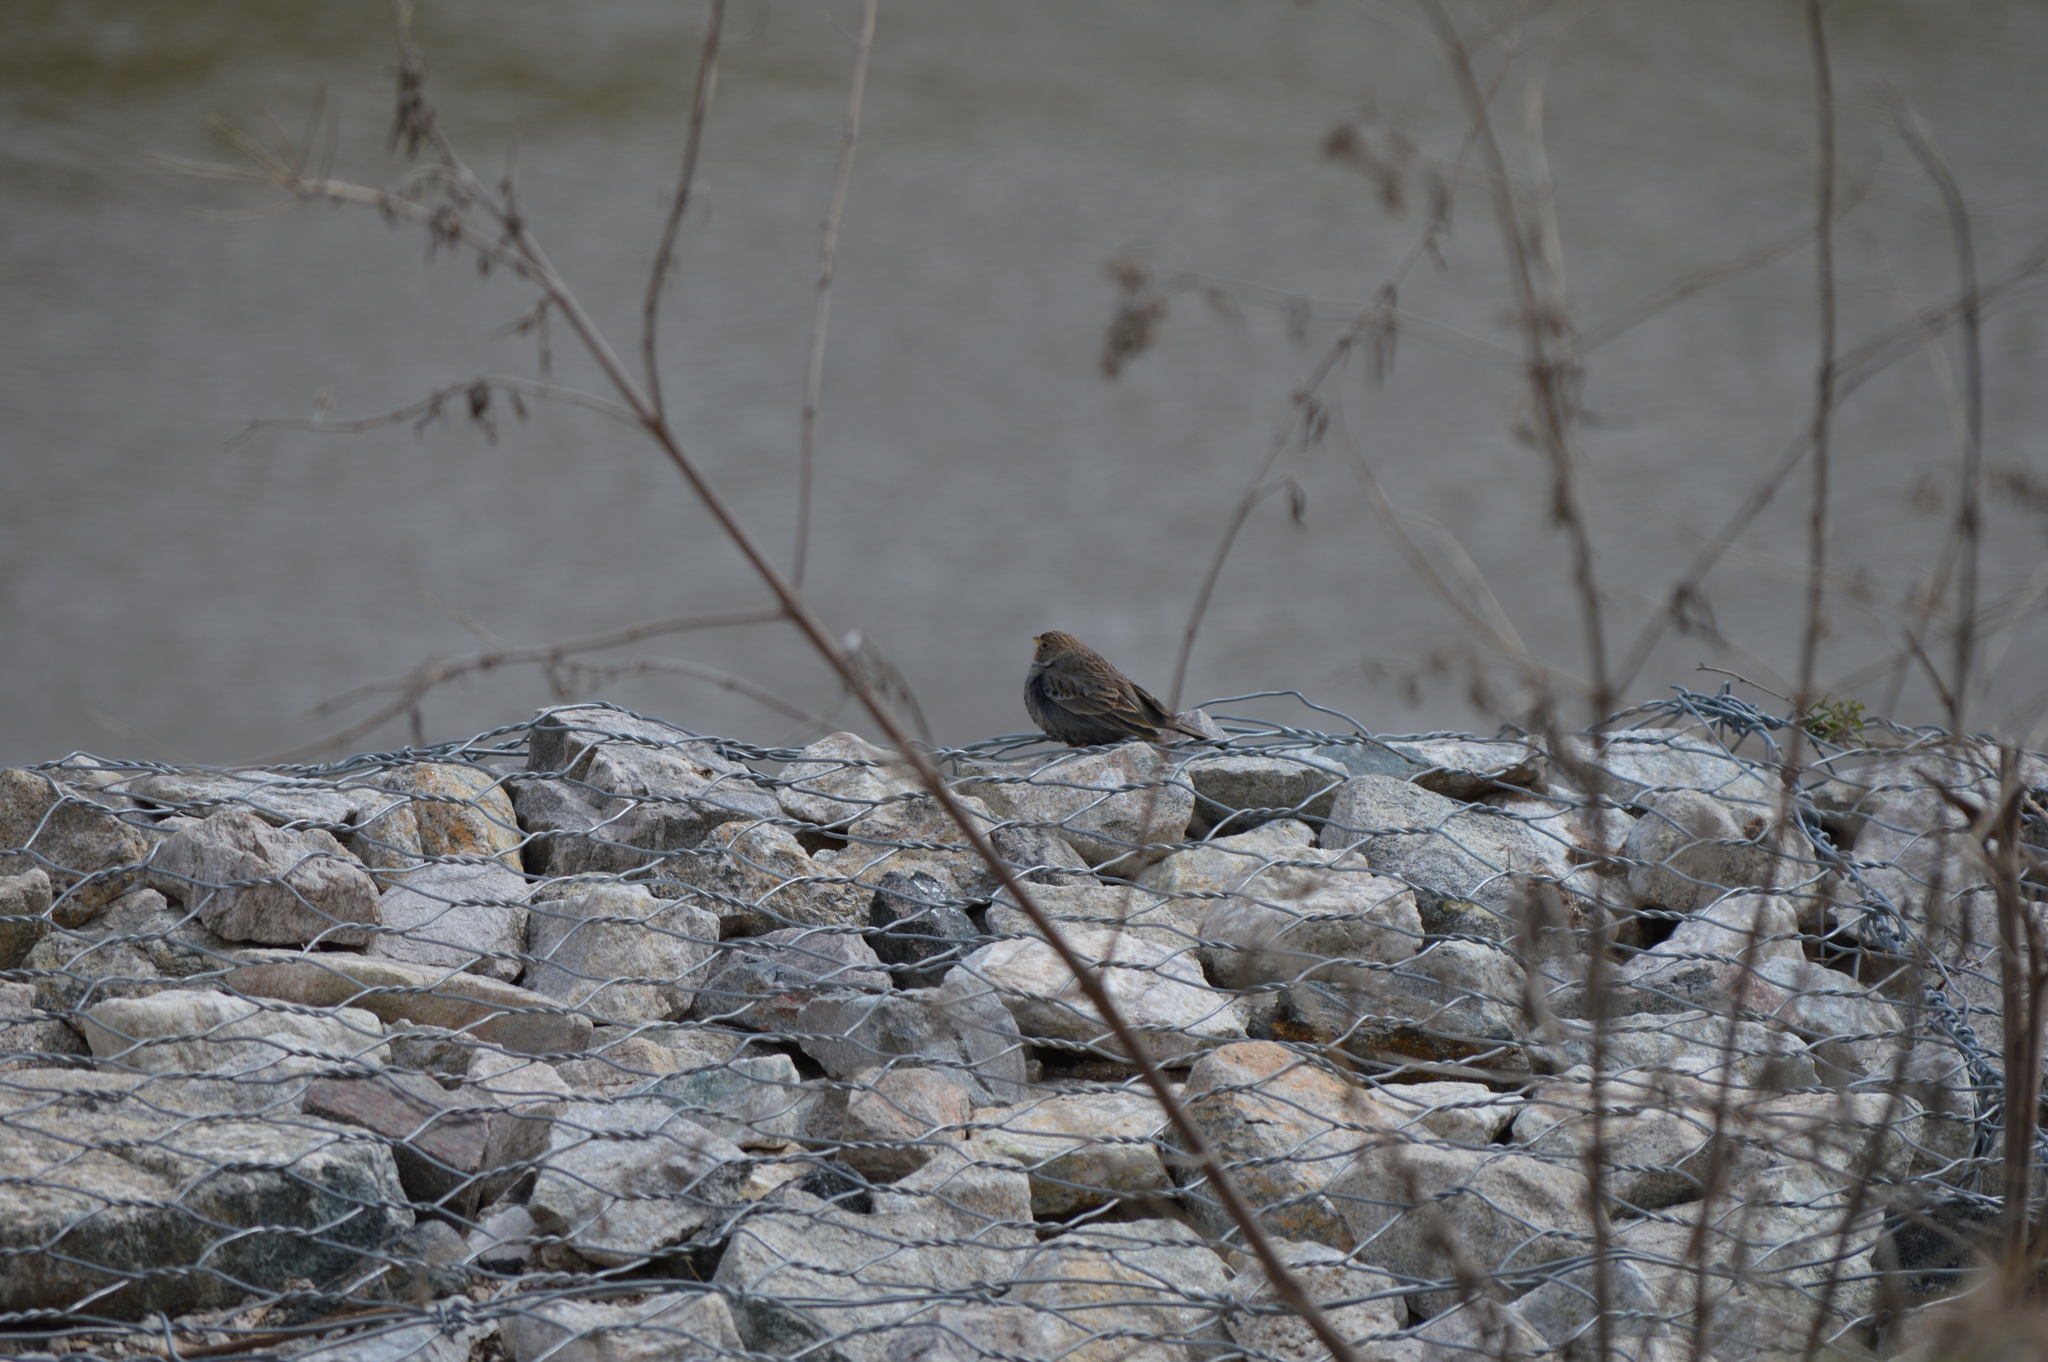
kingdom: Animalia
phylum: Chordata
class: Aves
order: Passeriformes
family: Thraupidae
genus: Rhopospina
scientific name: Rhopospina fruticeti
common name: Mourning sierra finch
